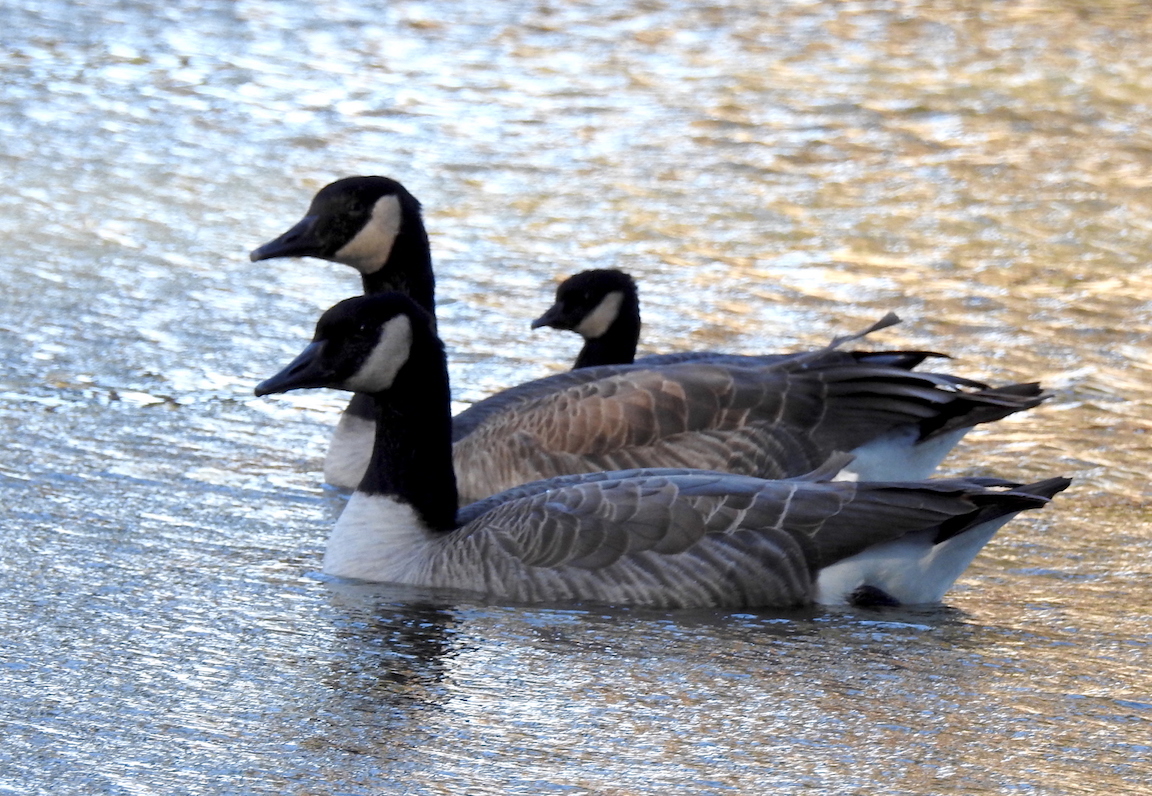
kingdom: Animalia
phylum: Chordata
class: Aves
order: Anseriformes
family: Anatidae
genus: Branta
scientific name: Branta hutchinsii
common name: Cackling goose
